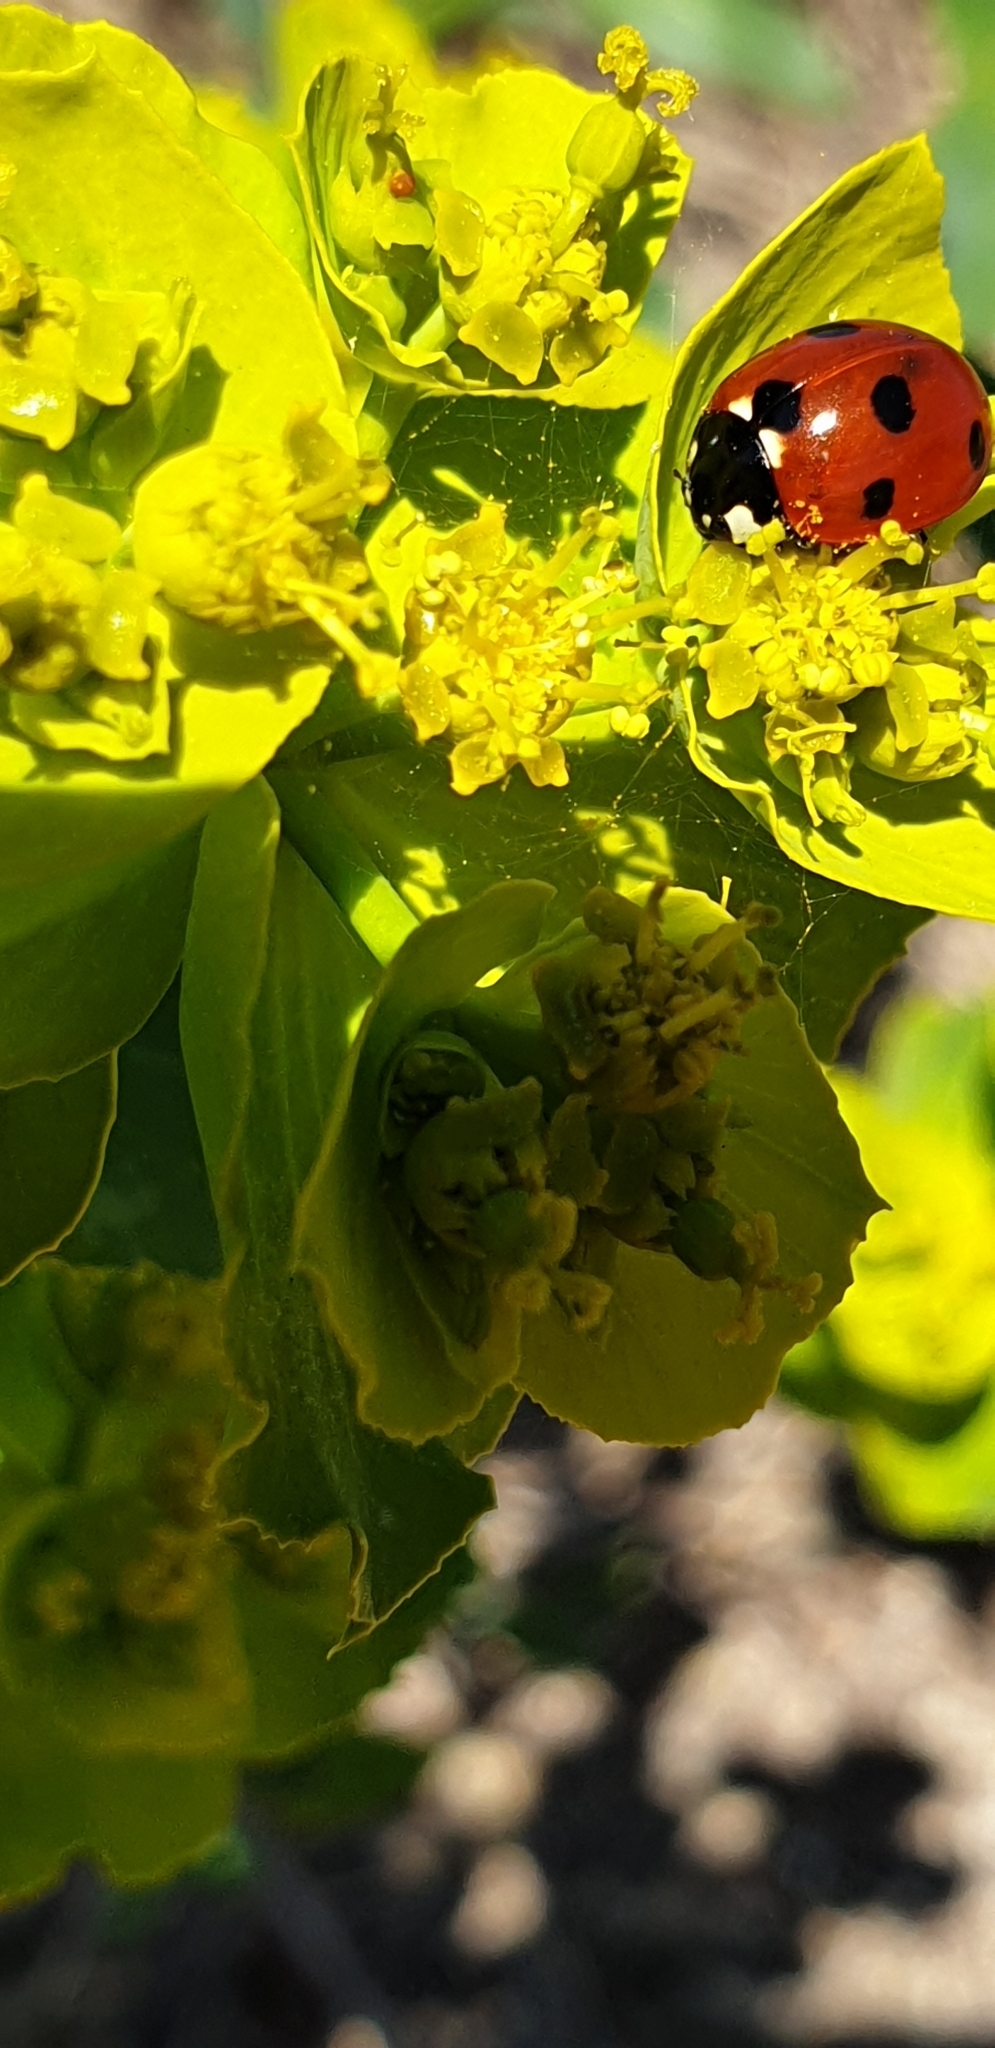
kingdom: Animalia
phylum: Arthropoda
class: Insecta
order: Coleoptera
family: Coccinellidae
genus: Coccinella
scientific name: Coccinella septempunctata
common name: Sevenspotted lady beetle
